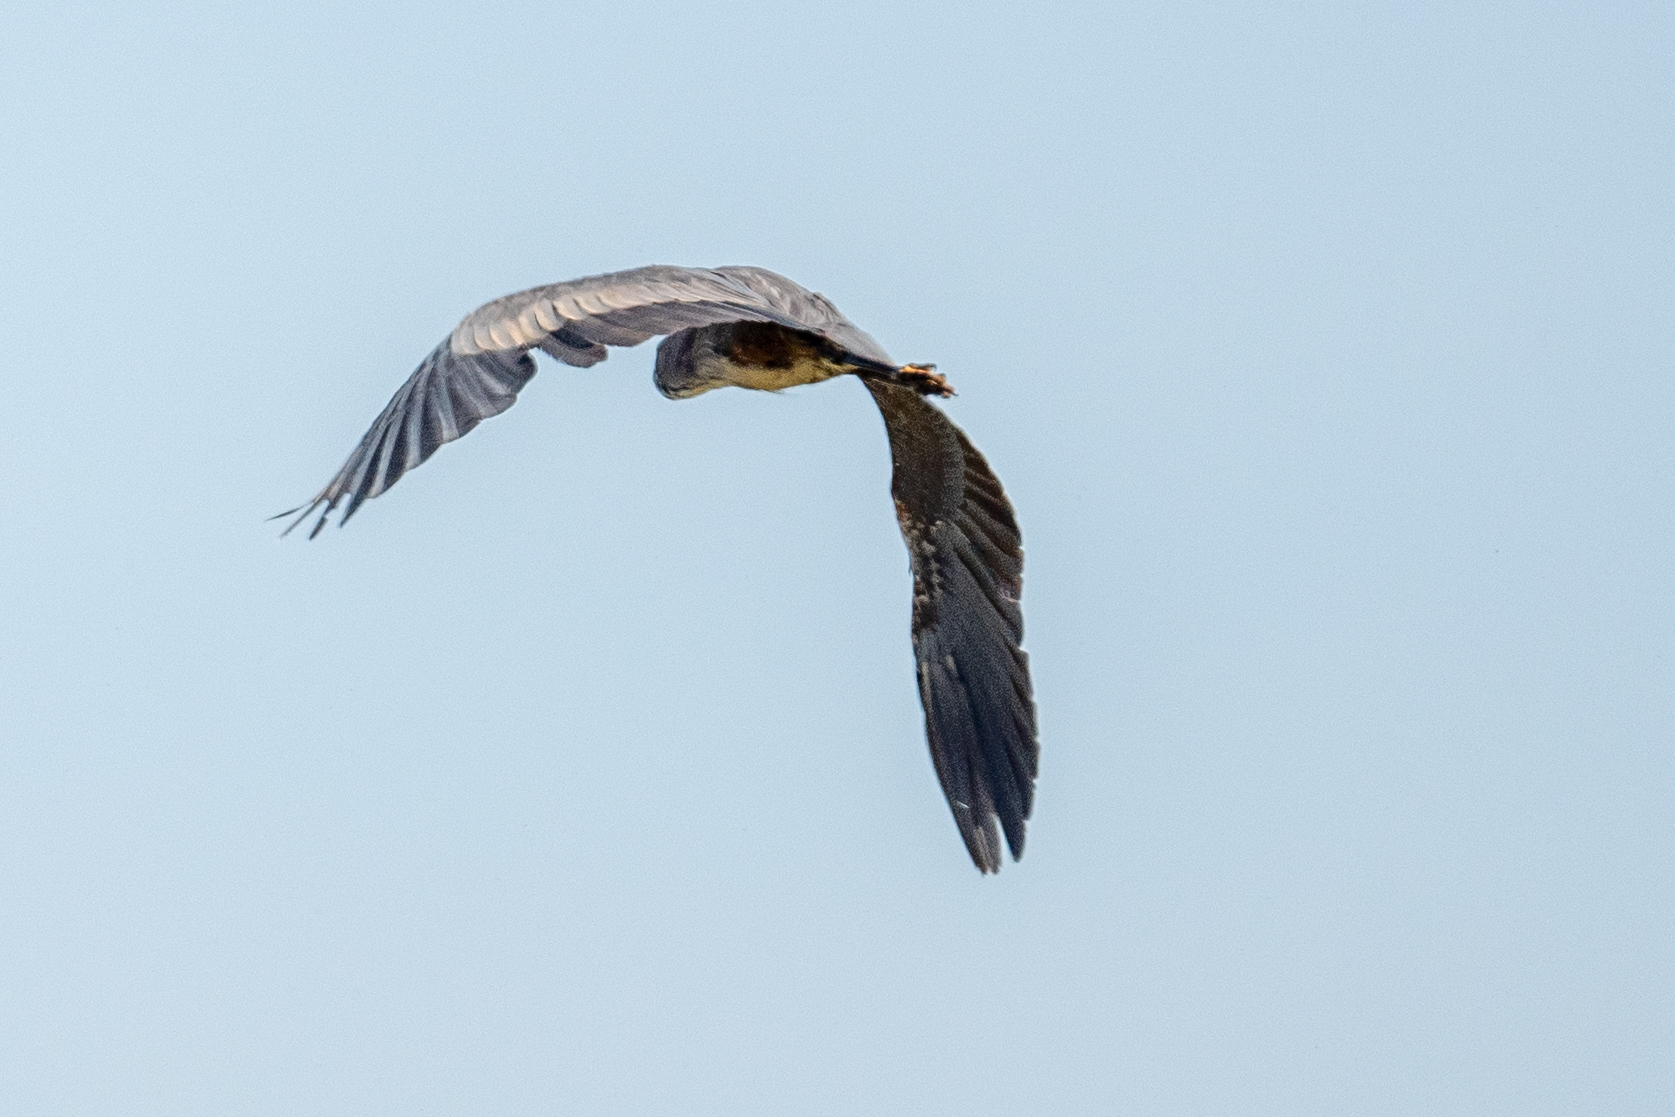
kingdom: Animalia
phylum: Chordata
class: Aves
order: Pelecaniformes
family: Ardeidae
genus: Ardea
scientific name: Ardea herodias
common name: Great blue heron
